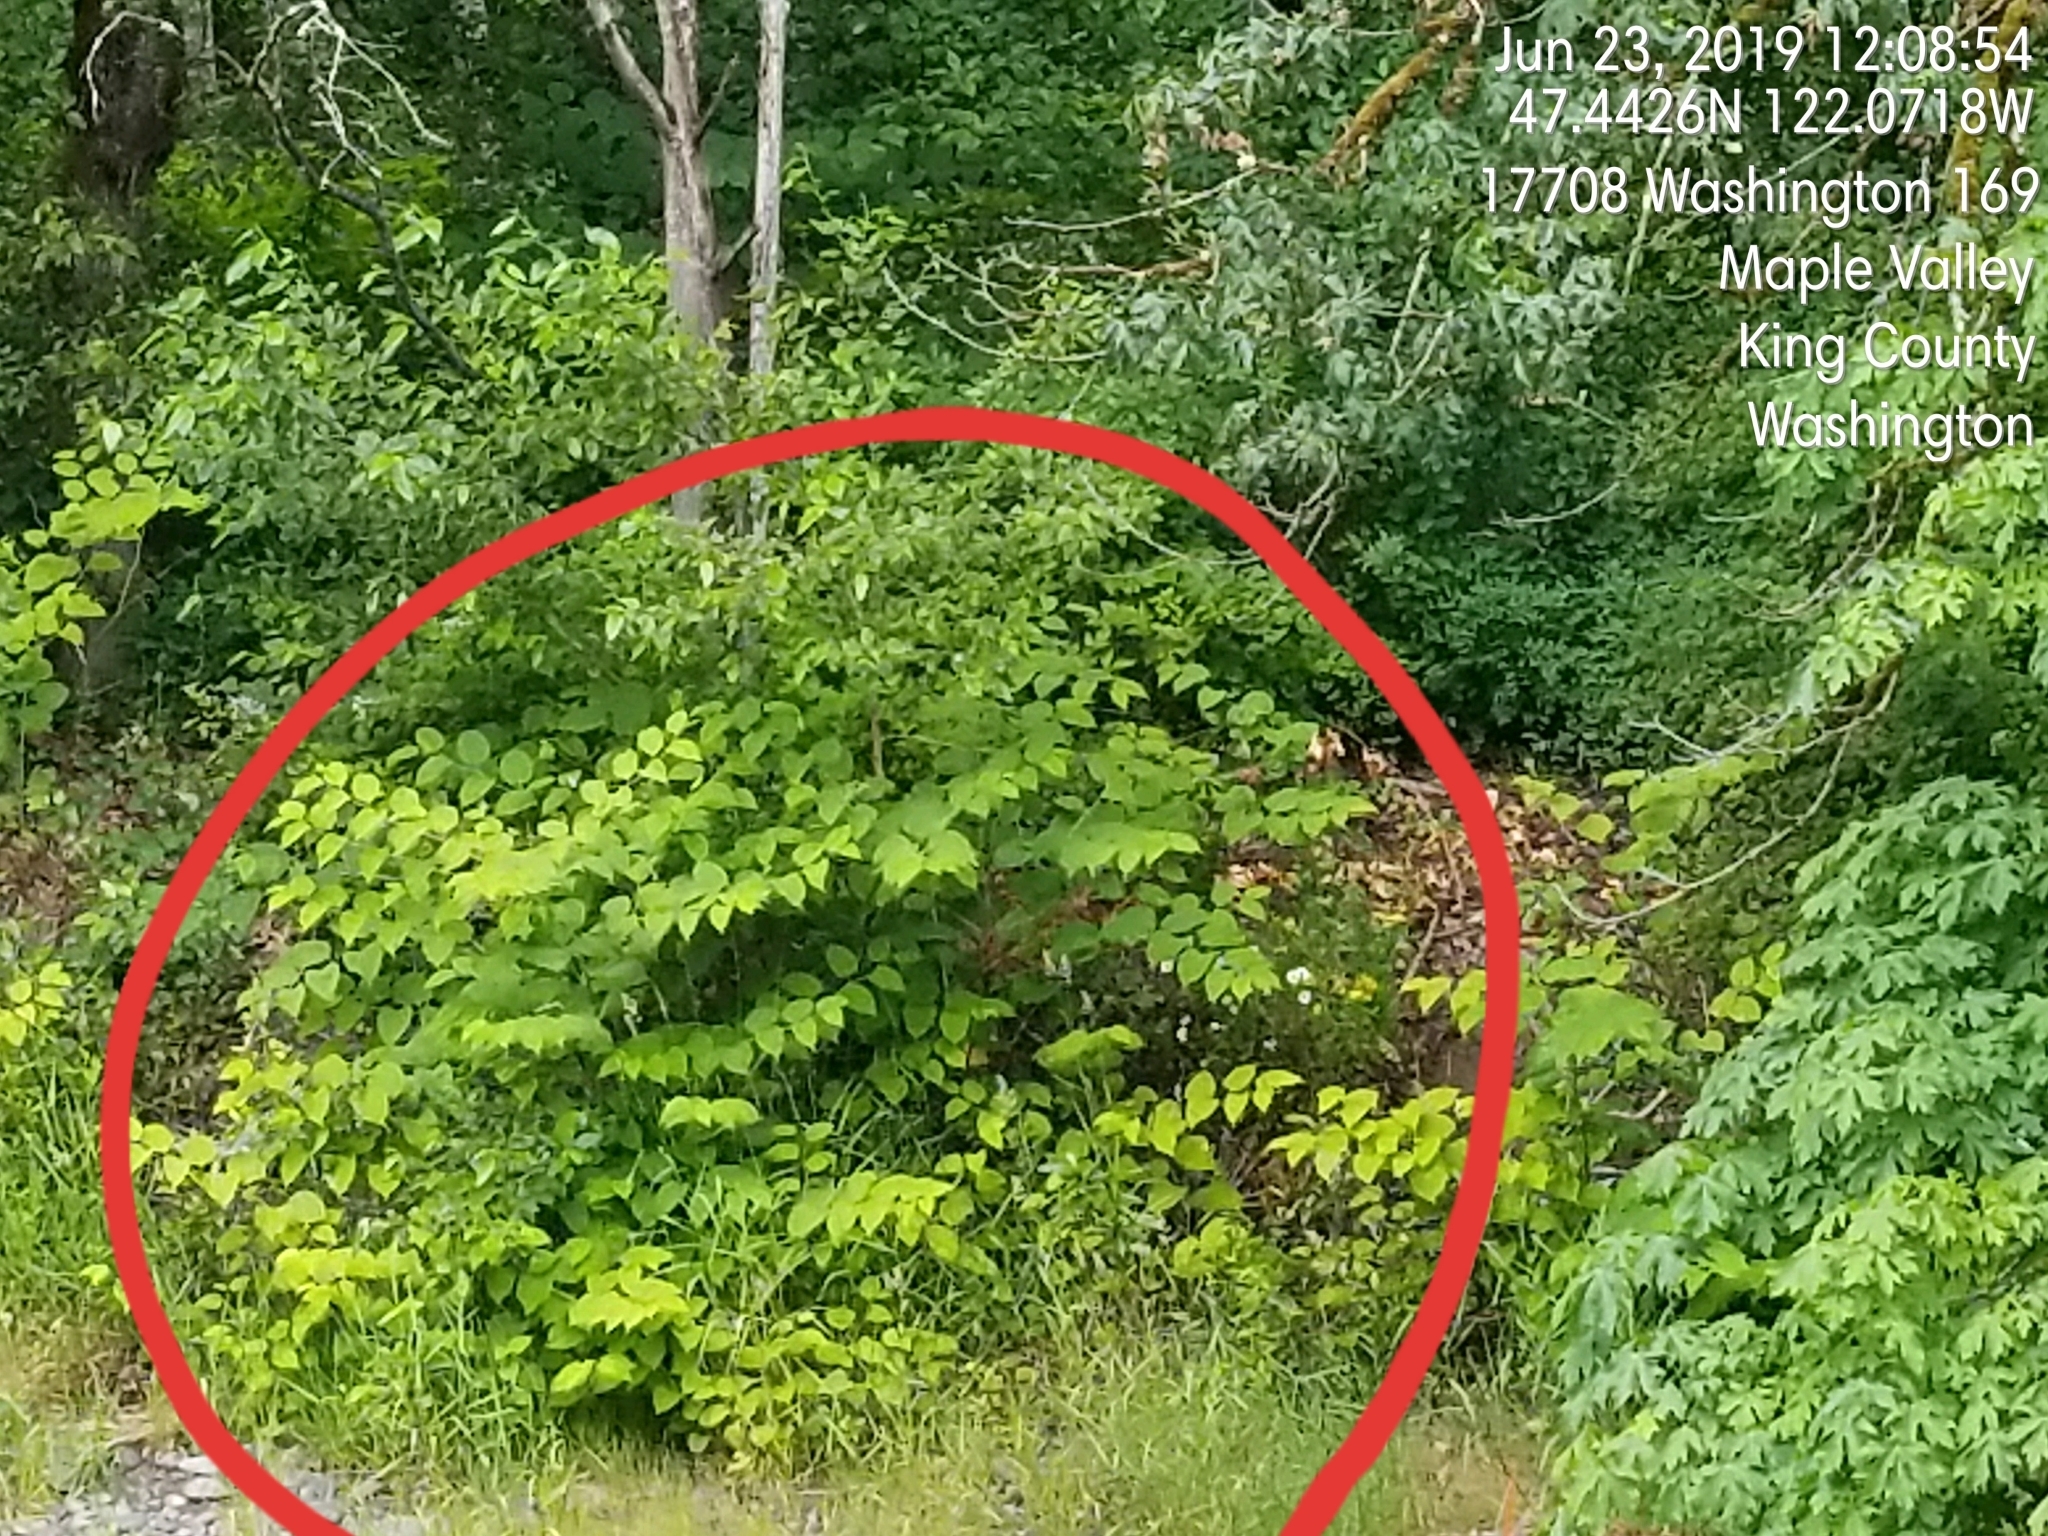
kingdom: Plantae
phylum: Tracheophyta
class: Magnoliopsida
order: Caryophyllales
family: Polygonaceae
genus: Reynoutria
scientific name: Reynoutria bohemica
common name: Bohemian knotweed
